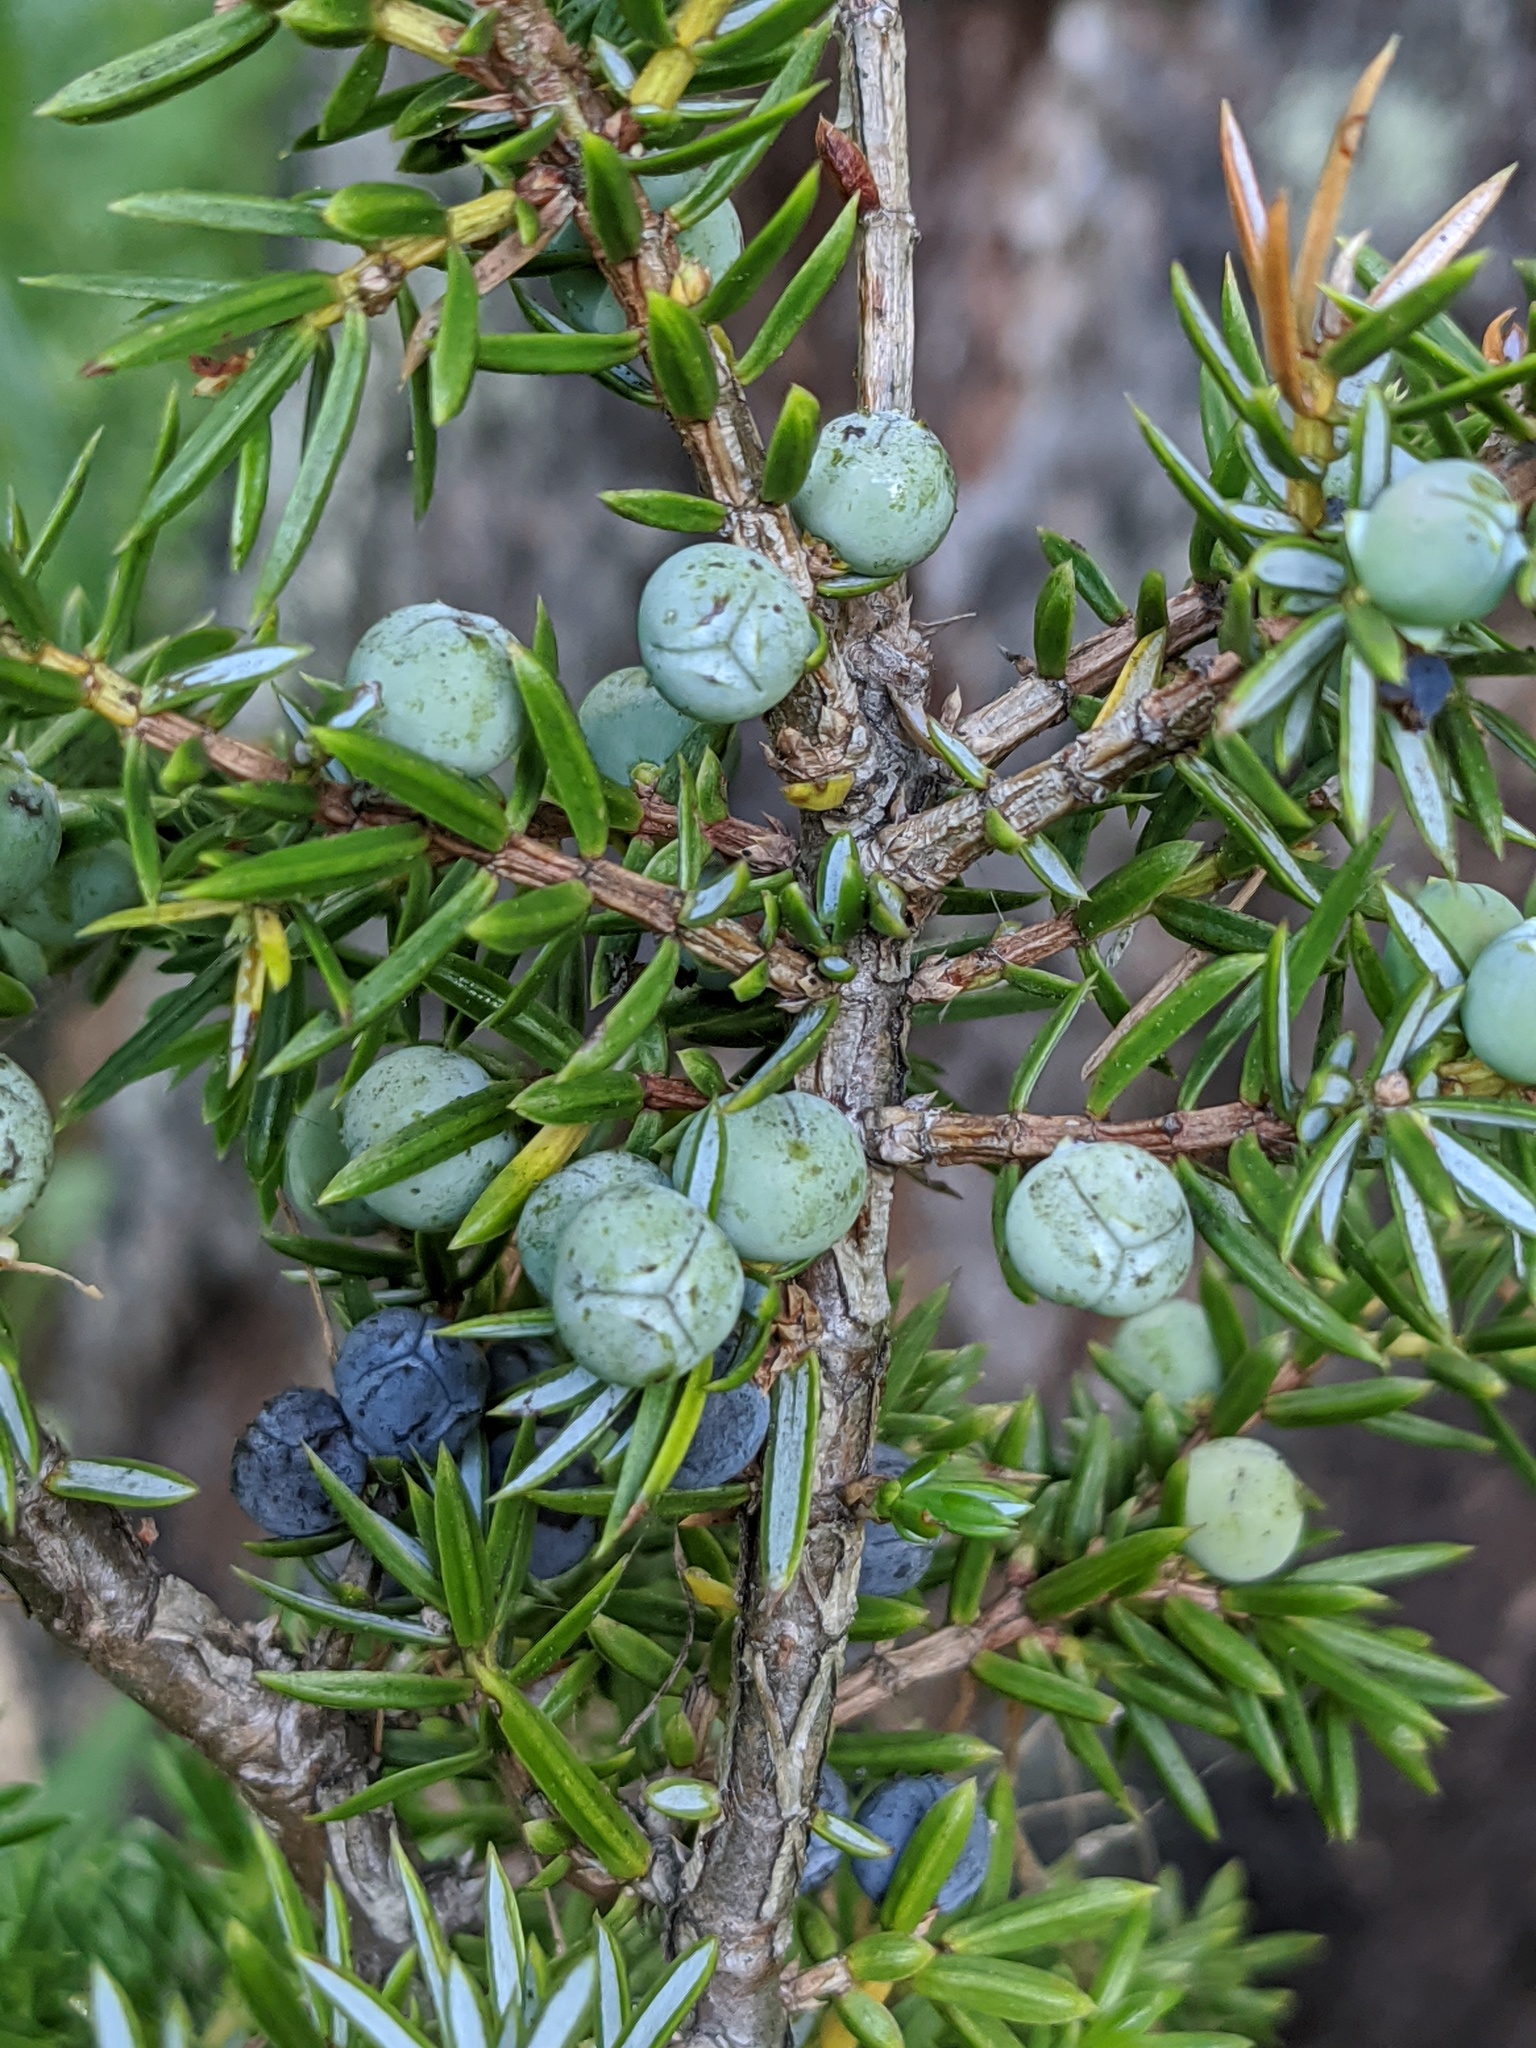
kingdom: Plantae
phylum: Tracheophyta
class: Pinopsida
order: Pinales
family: Cupressaceae
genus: Juniperus
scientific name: Juniperus communis
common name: Common juniper
